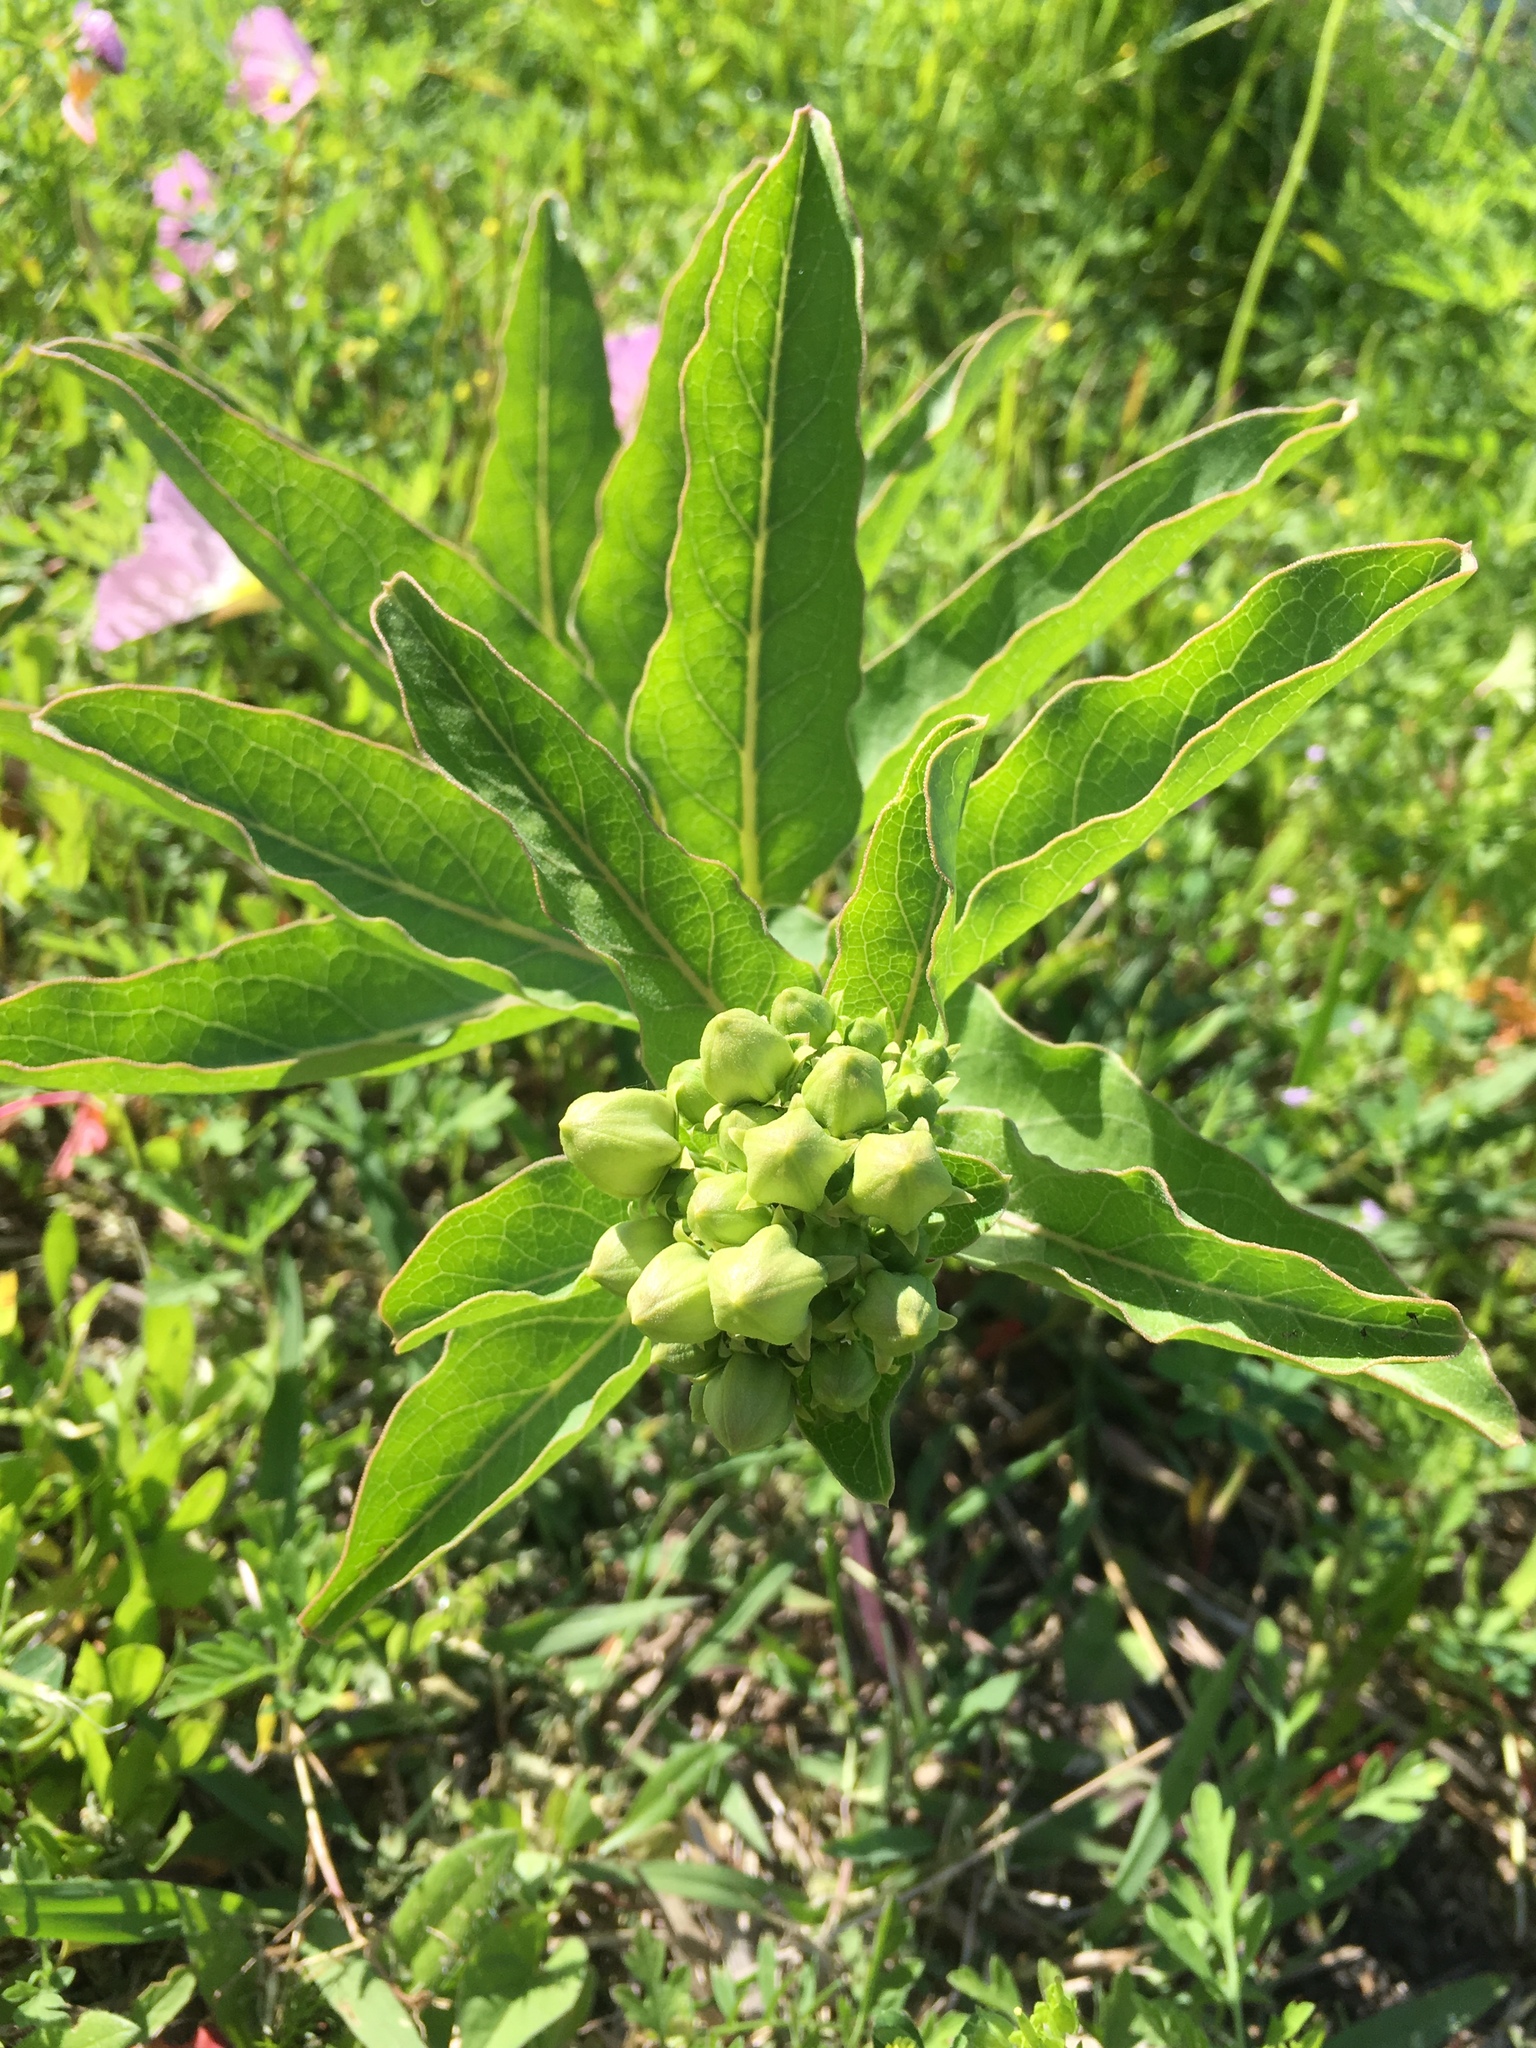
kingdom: Plantae
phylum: Tracheophyta
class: Magnoliopsida
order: Gentianales
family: Apocynaceae
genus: Asclepias
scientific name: Asclepias viridis
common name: Antelope-horns
